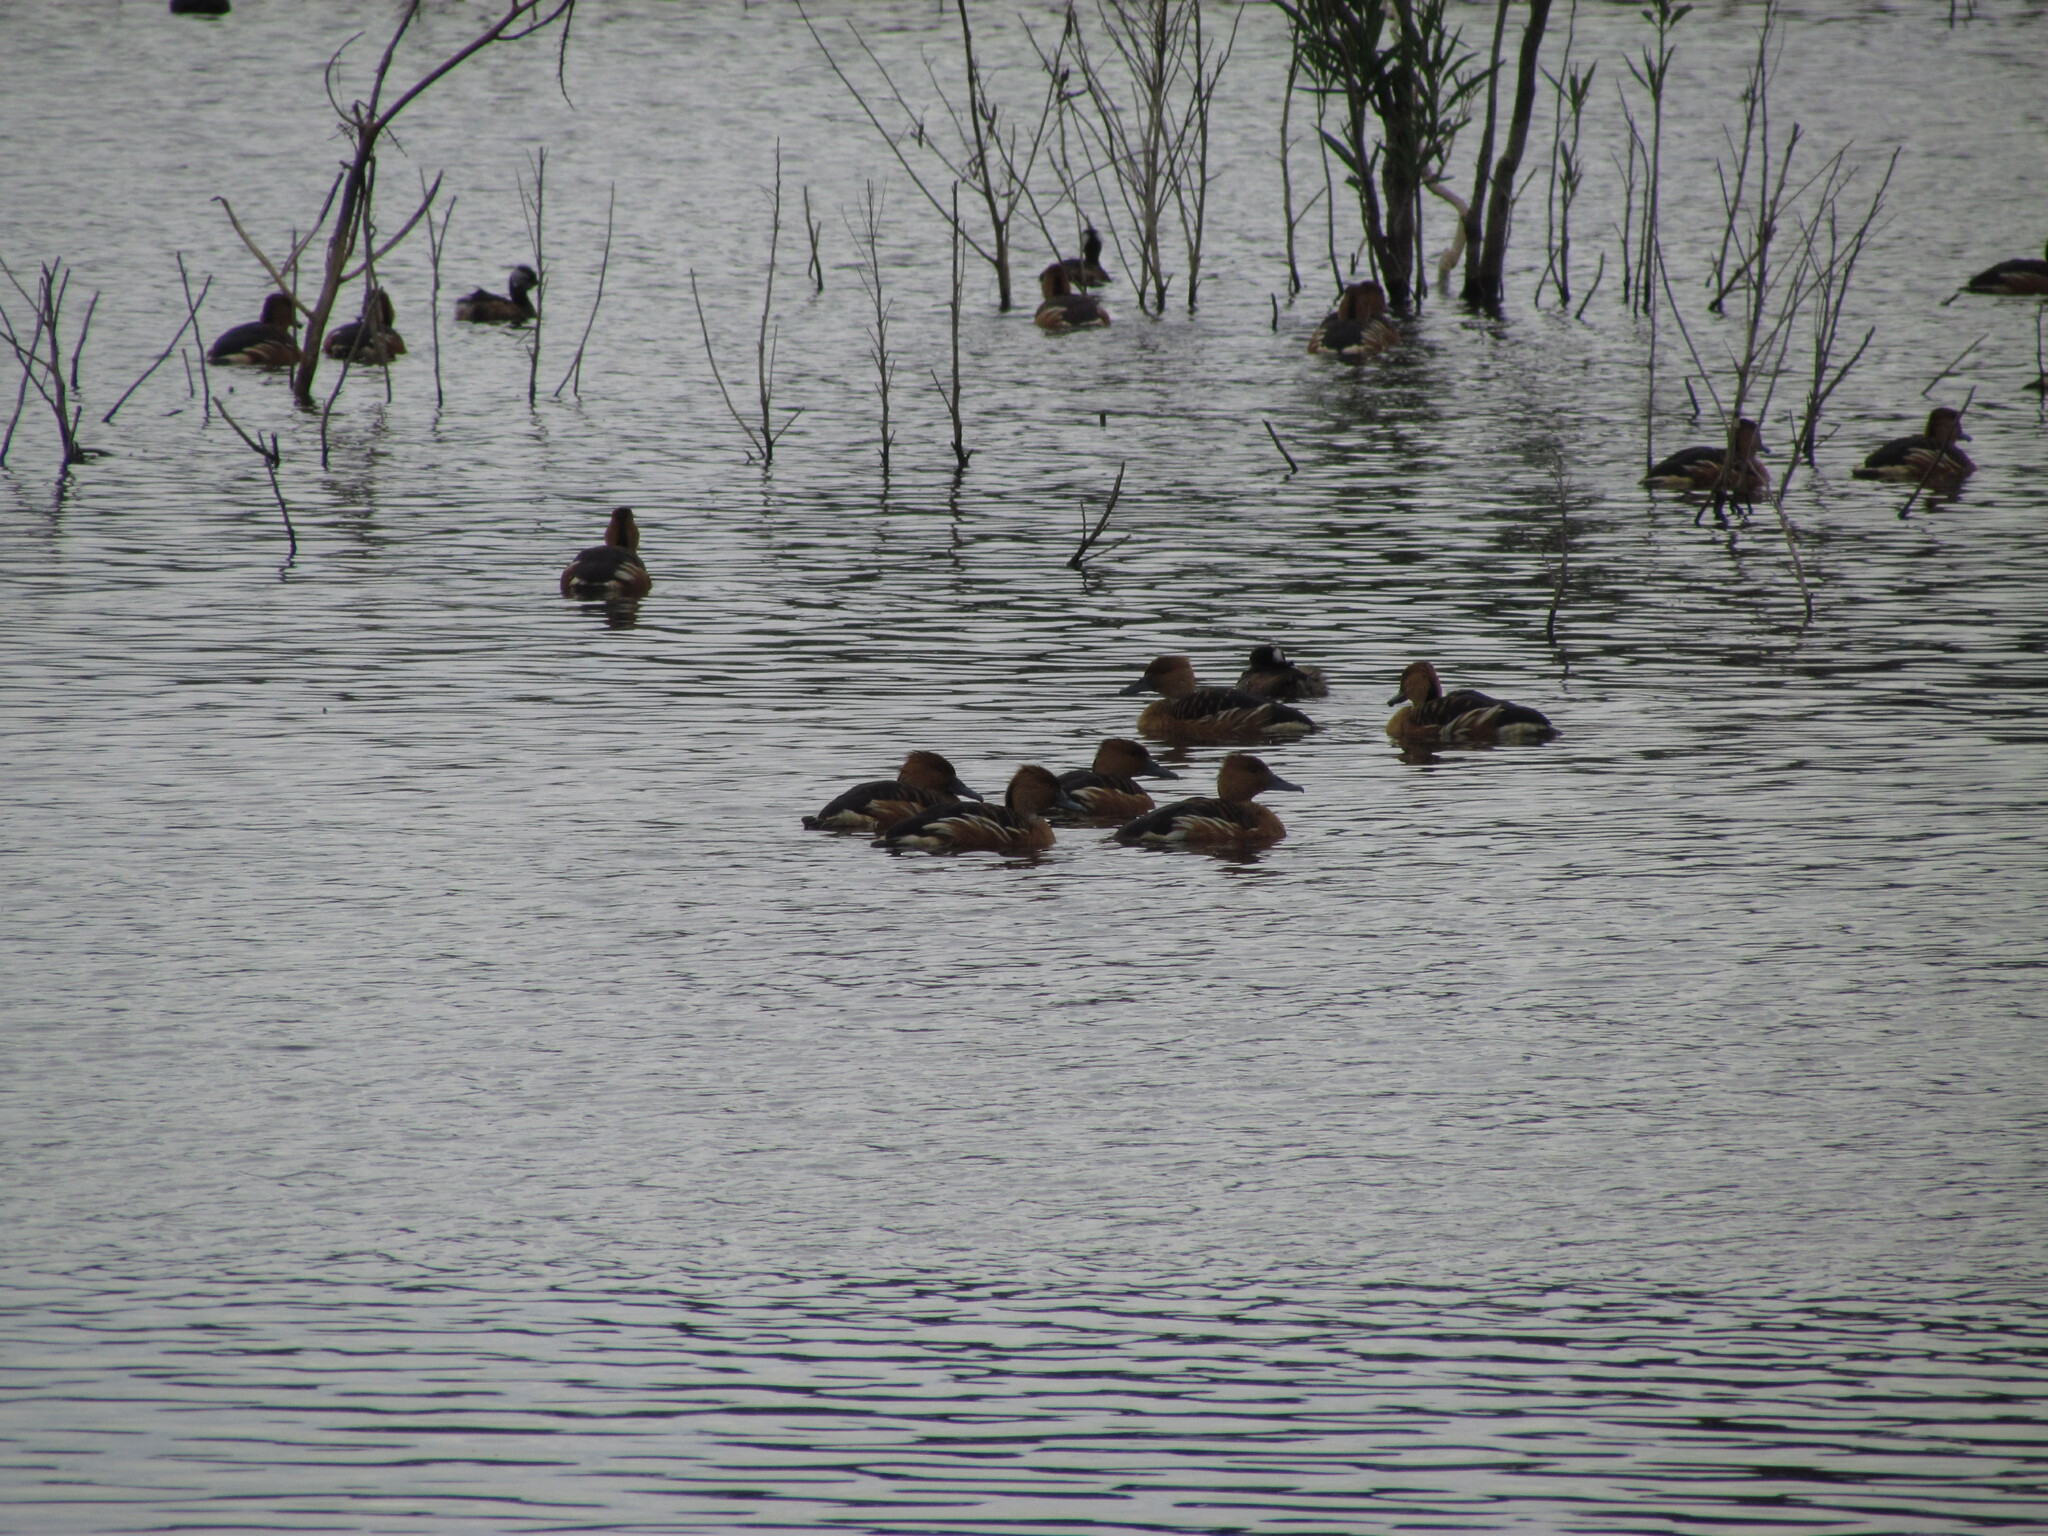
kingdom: Animalia
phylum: Chordata
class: Aves
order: Anseriformes
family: Anatidae
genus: Dendrocygna
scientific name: Dendrocygna bicolor
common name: Fulvous whistling duck
